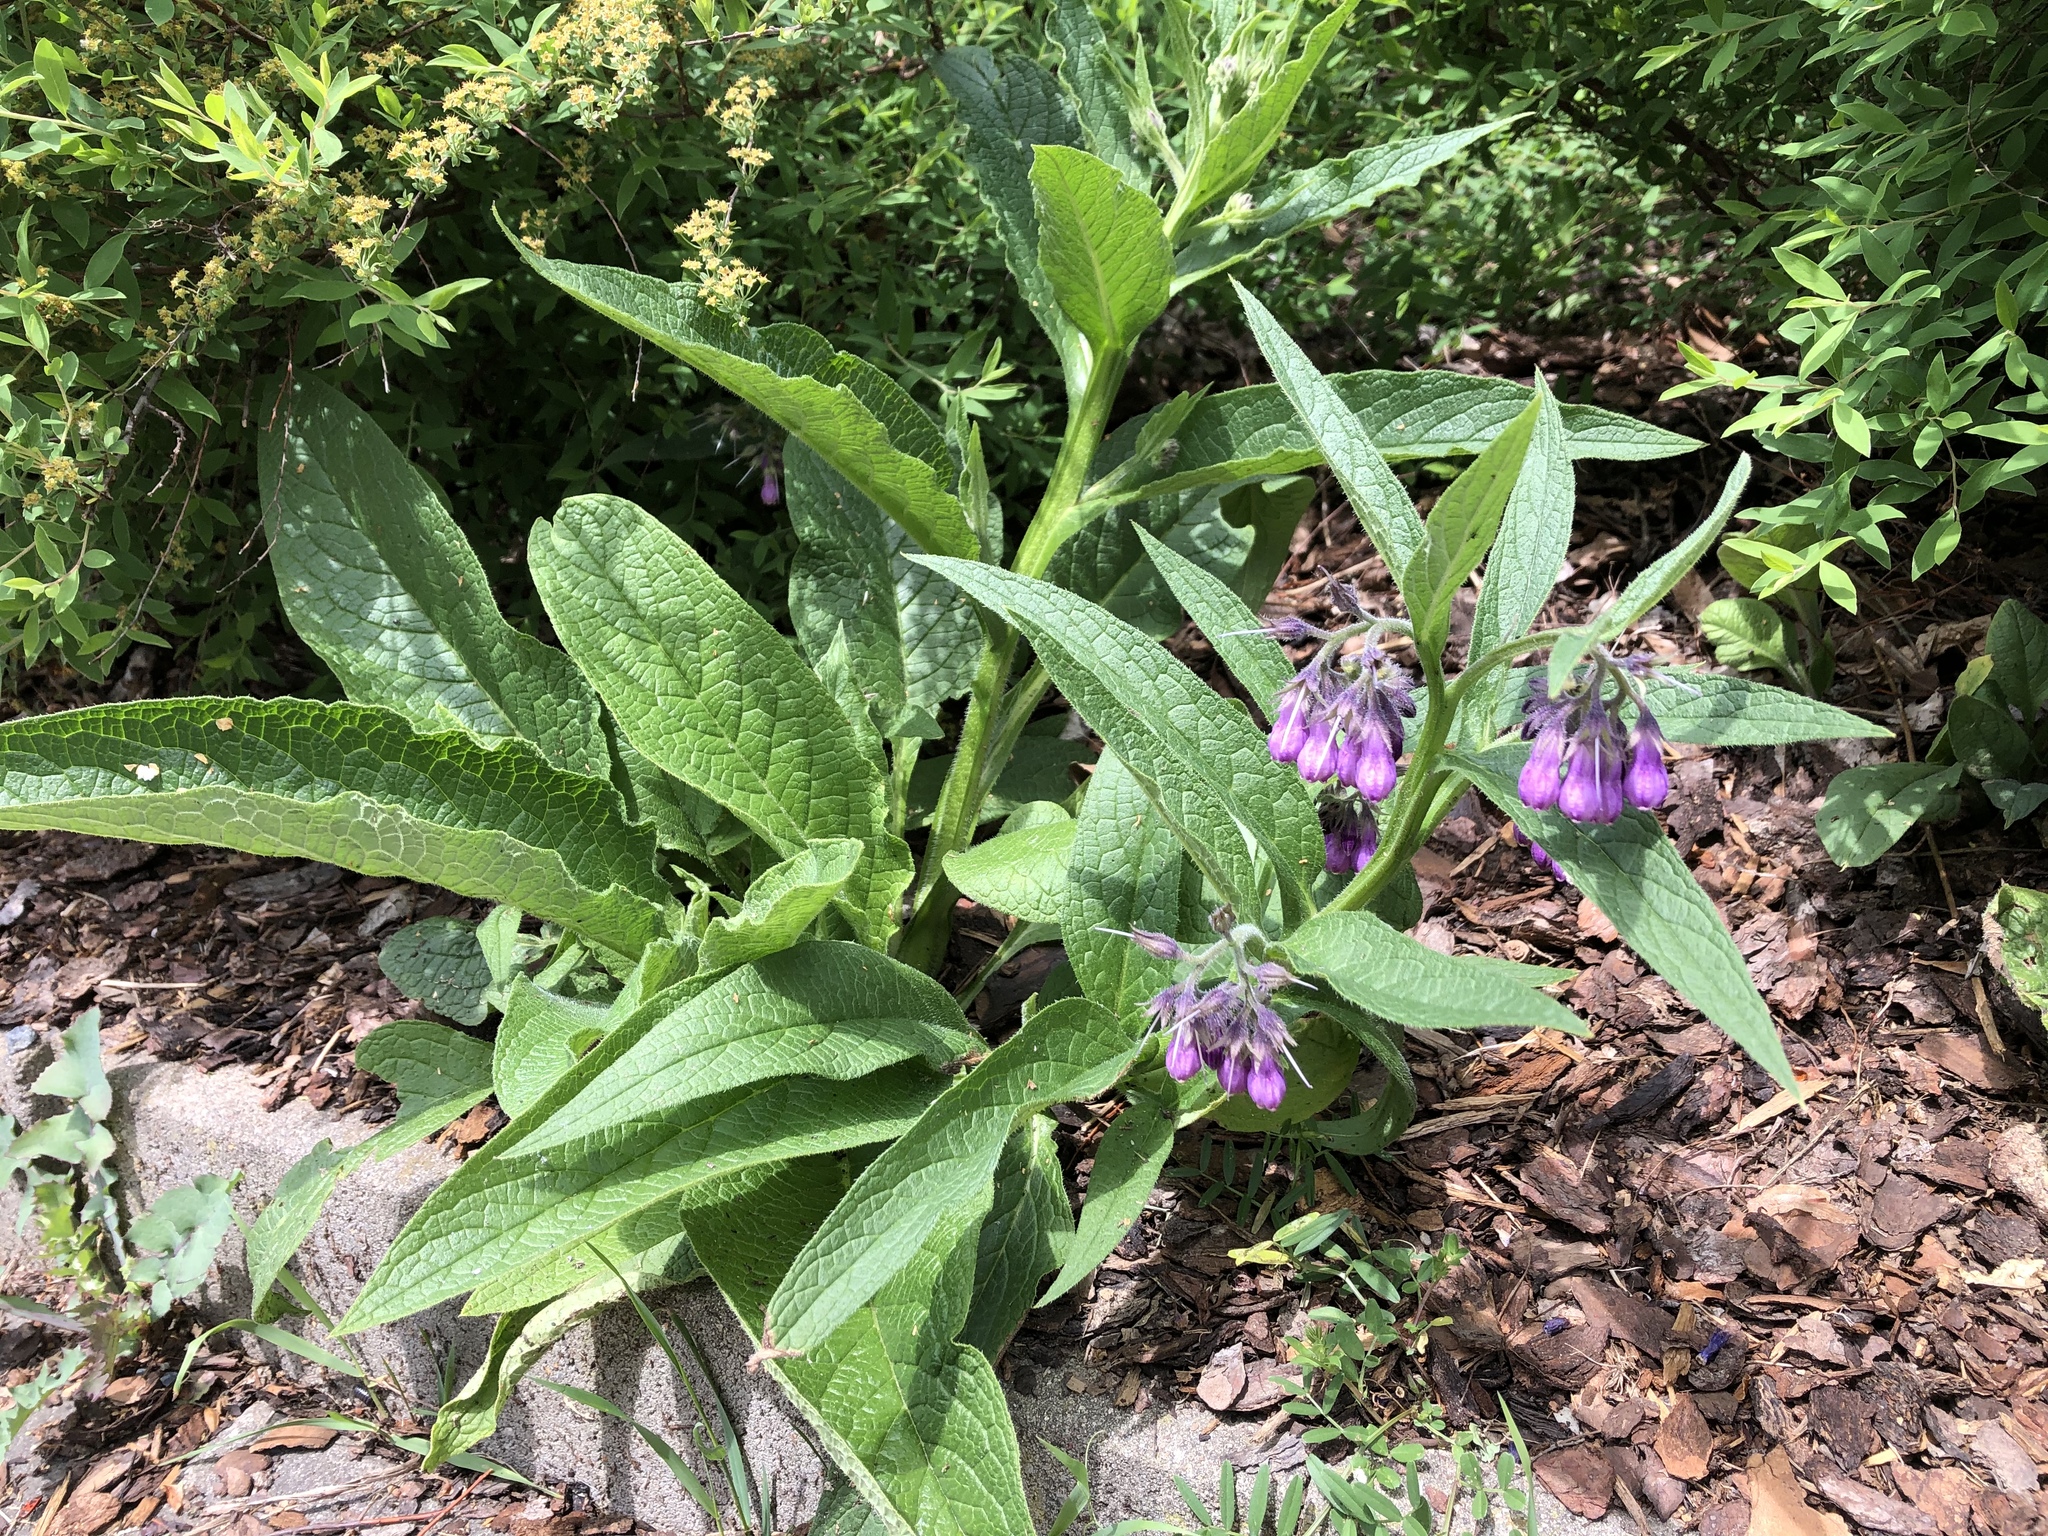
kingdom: Plantae
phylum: Tracheophyta
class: Magnoliopsida
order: Boraginales
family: Boraginaceae
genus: Symphytum
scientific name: Symphytum officinale
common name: Common comfrey
